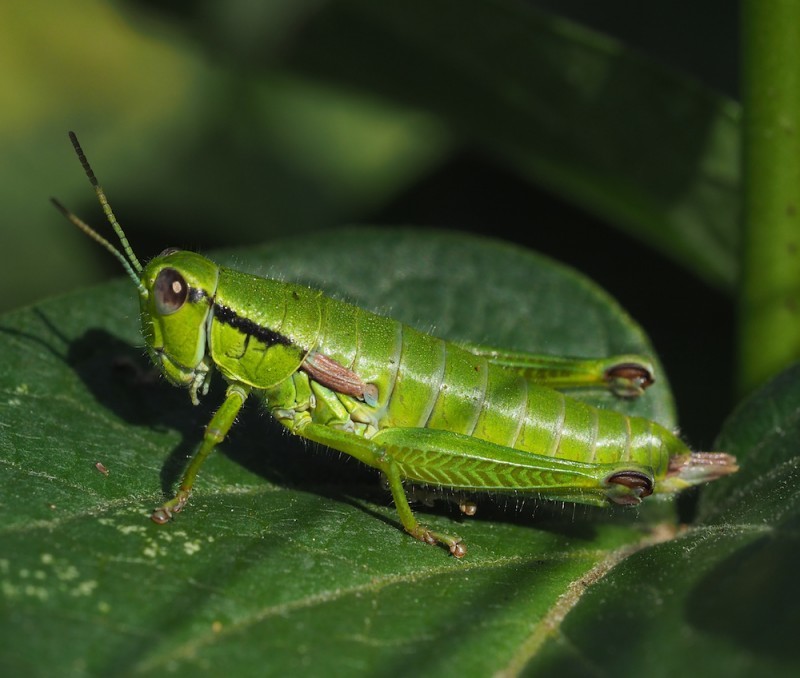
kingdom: Animalia
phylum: Arthropoda
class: Insecta
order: Orthoptera
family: Acrididae
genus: Odontopodisma
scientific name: Odontopodisma decipiens
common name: Cheating mountain grasshopper
